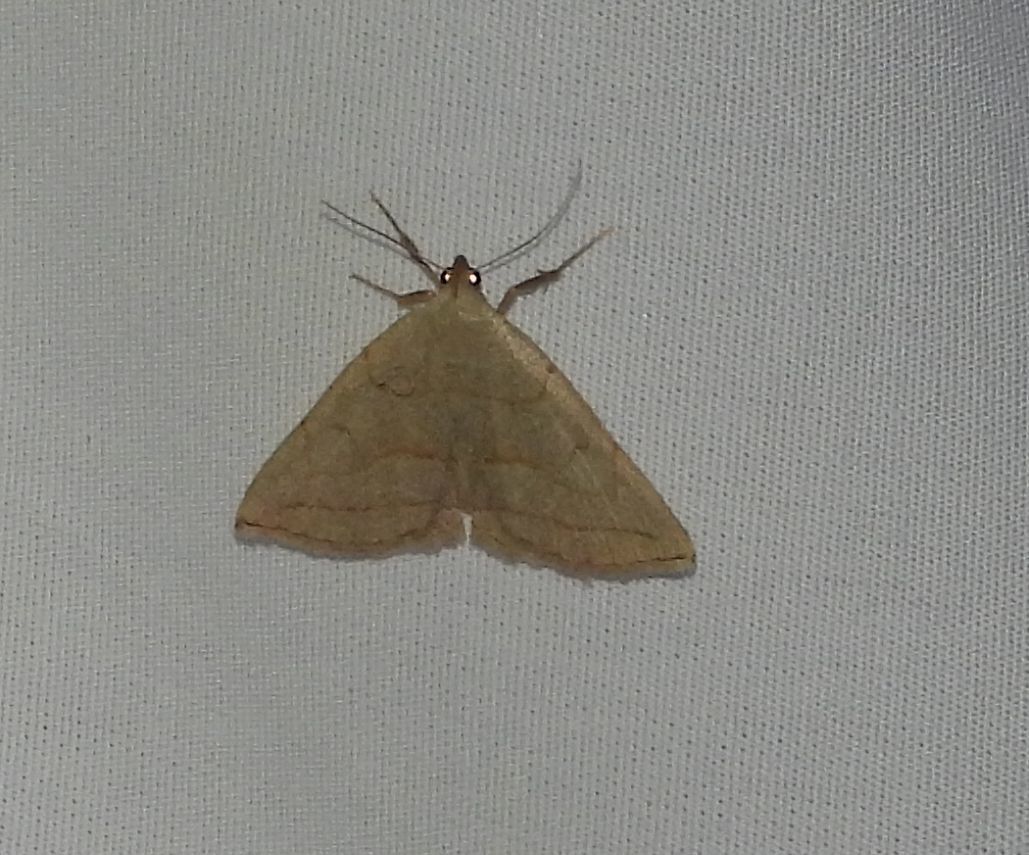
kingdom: Animalia
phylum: Arthropoda
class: Insecta
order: Lepidoptera
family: Erebidae
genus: Zanclognatha
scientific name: Zanclognatha pedipilalis
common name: Grayish fan-foot
